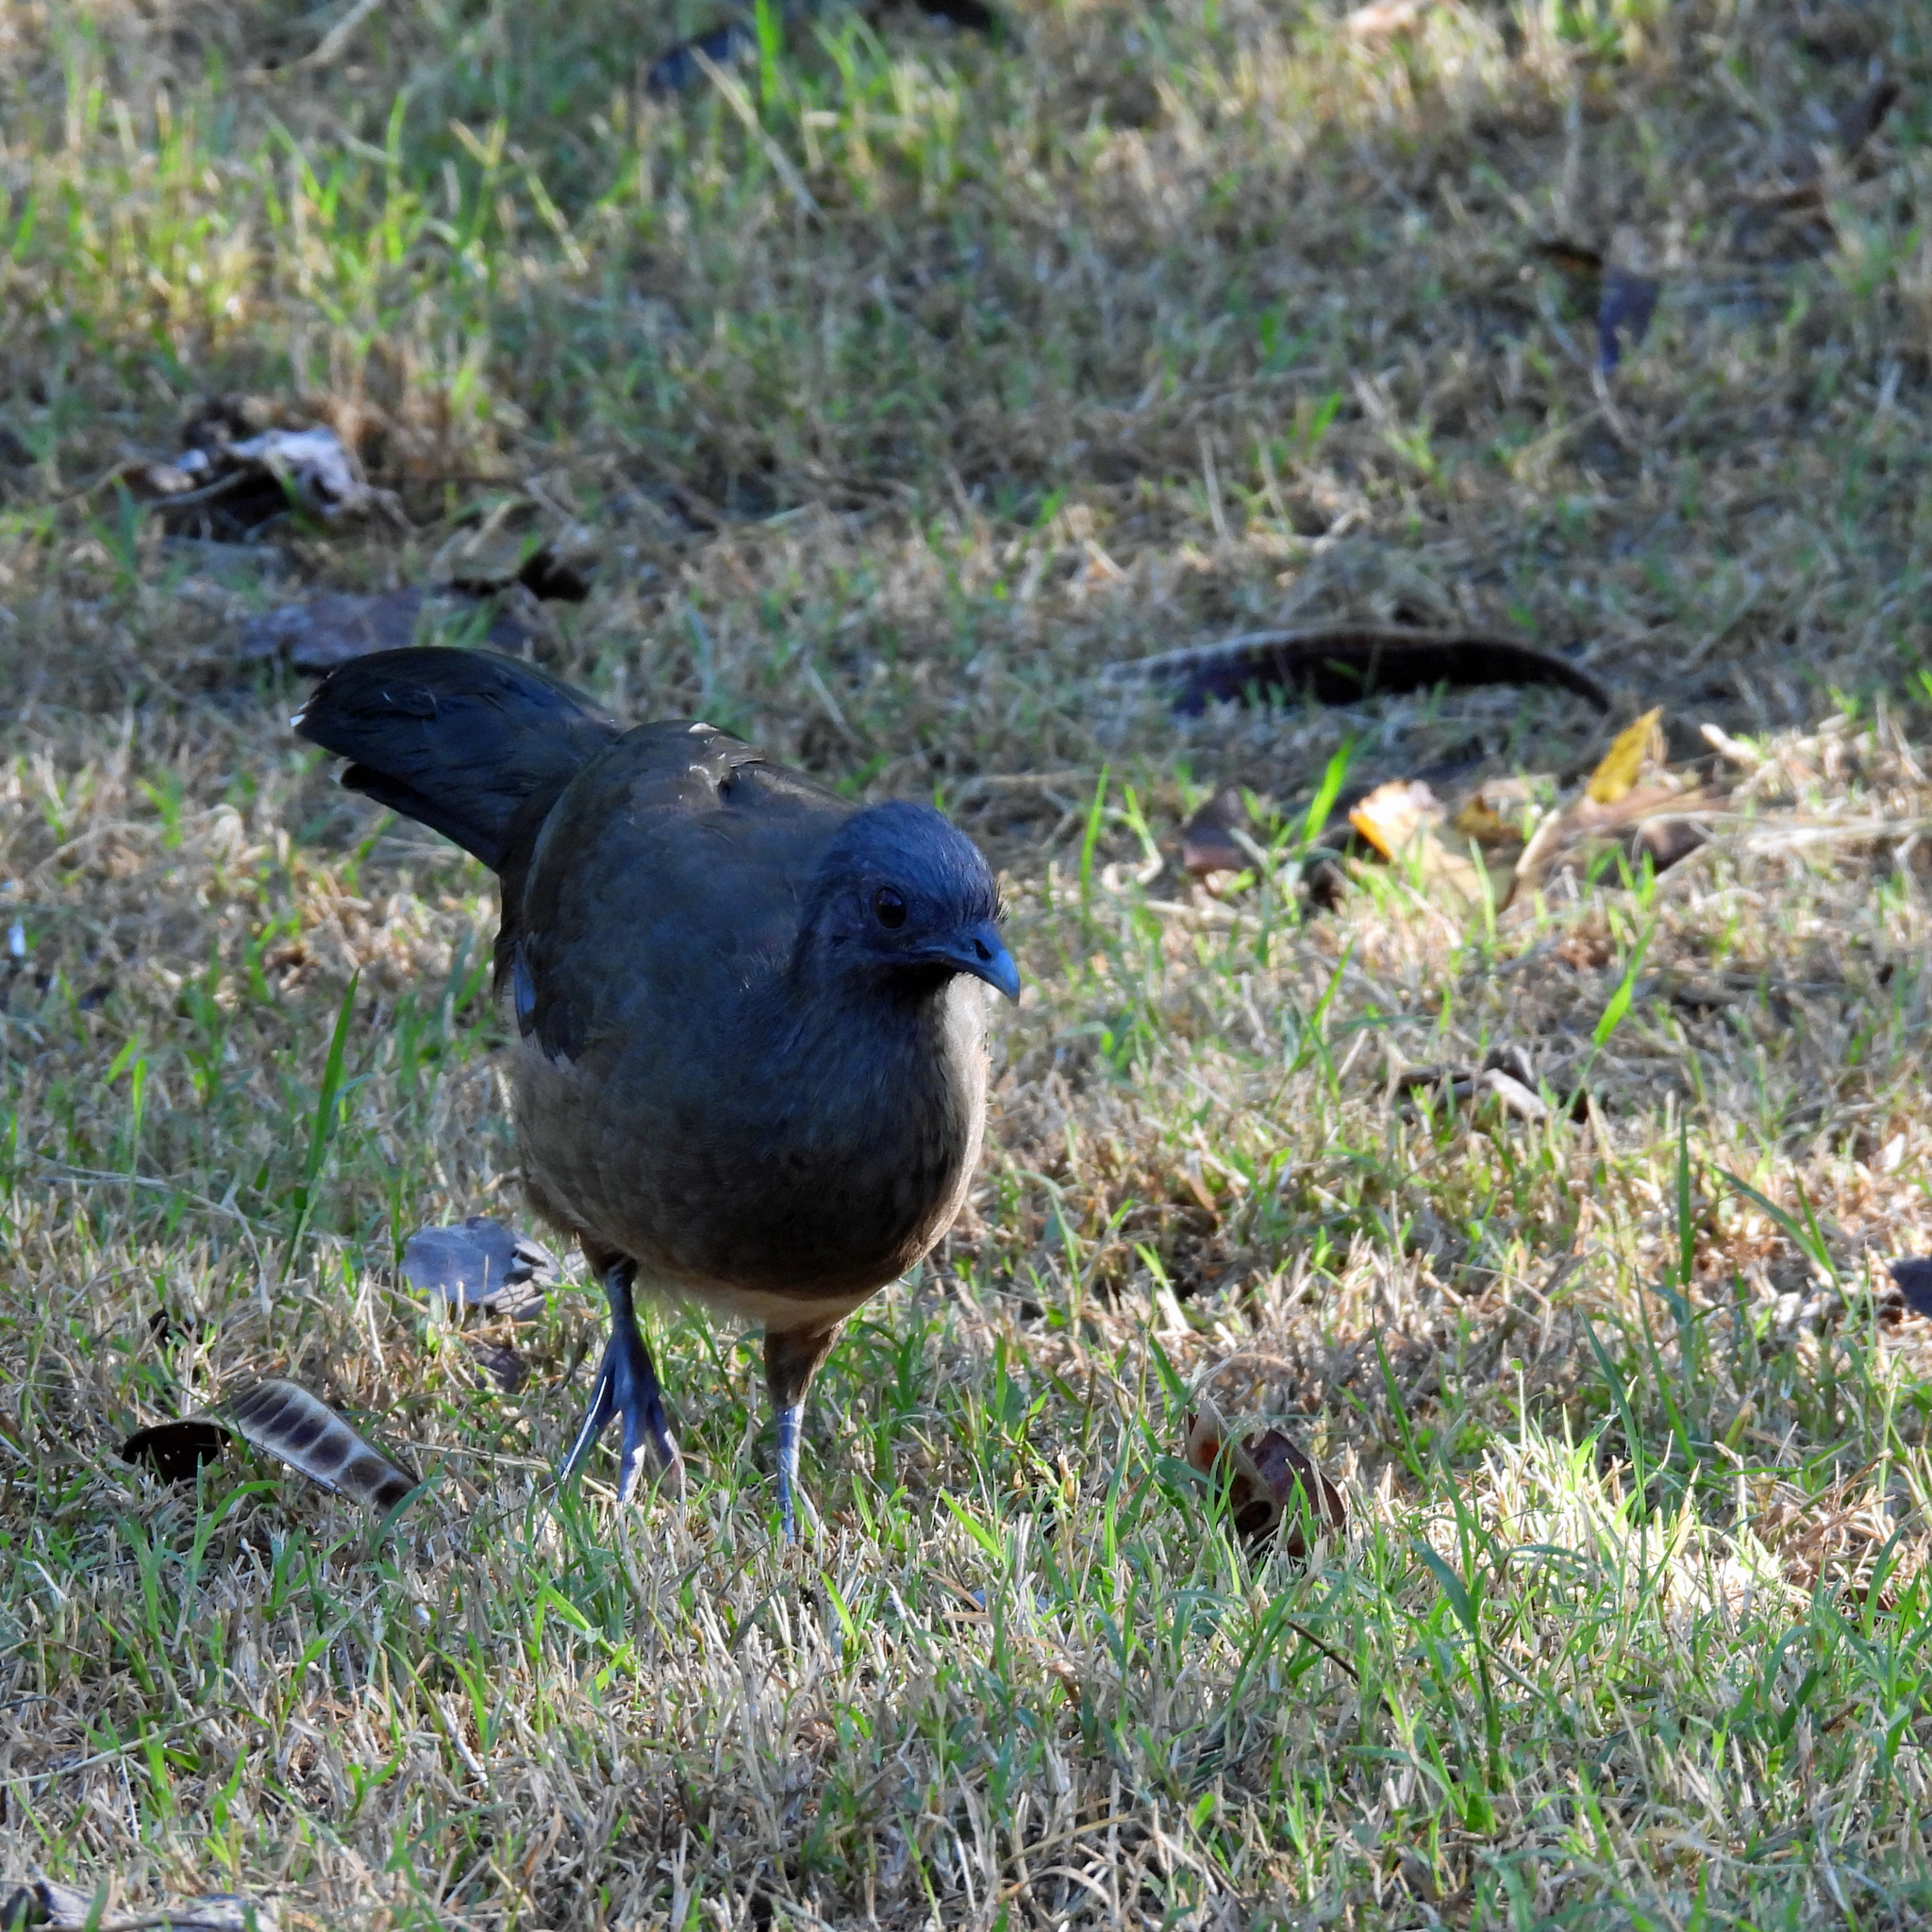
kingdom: Animalia
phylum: Chordata
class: Aves
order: Galliformes
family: Cracidae
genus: Ortalis
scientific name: Ortalis vetula
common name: Plain chachalaca
